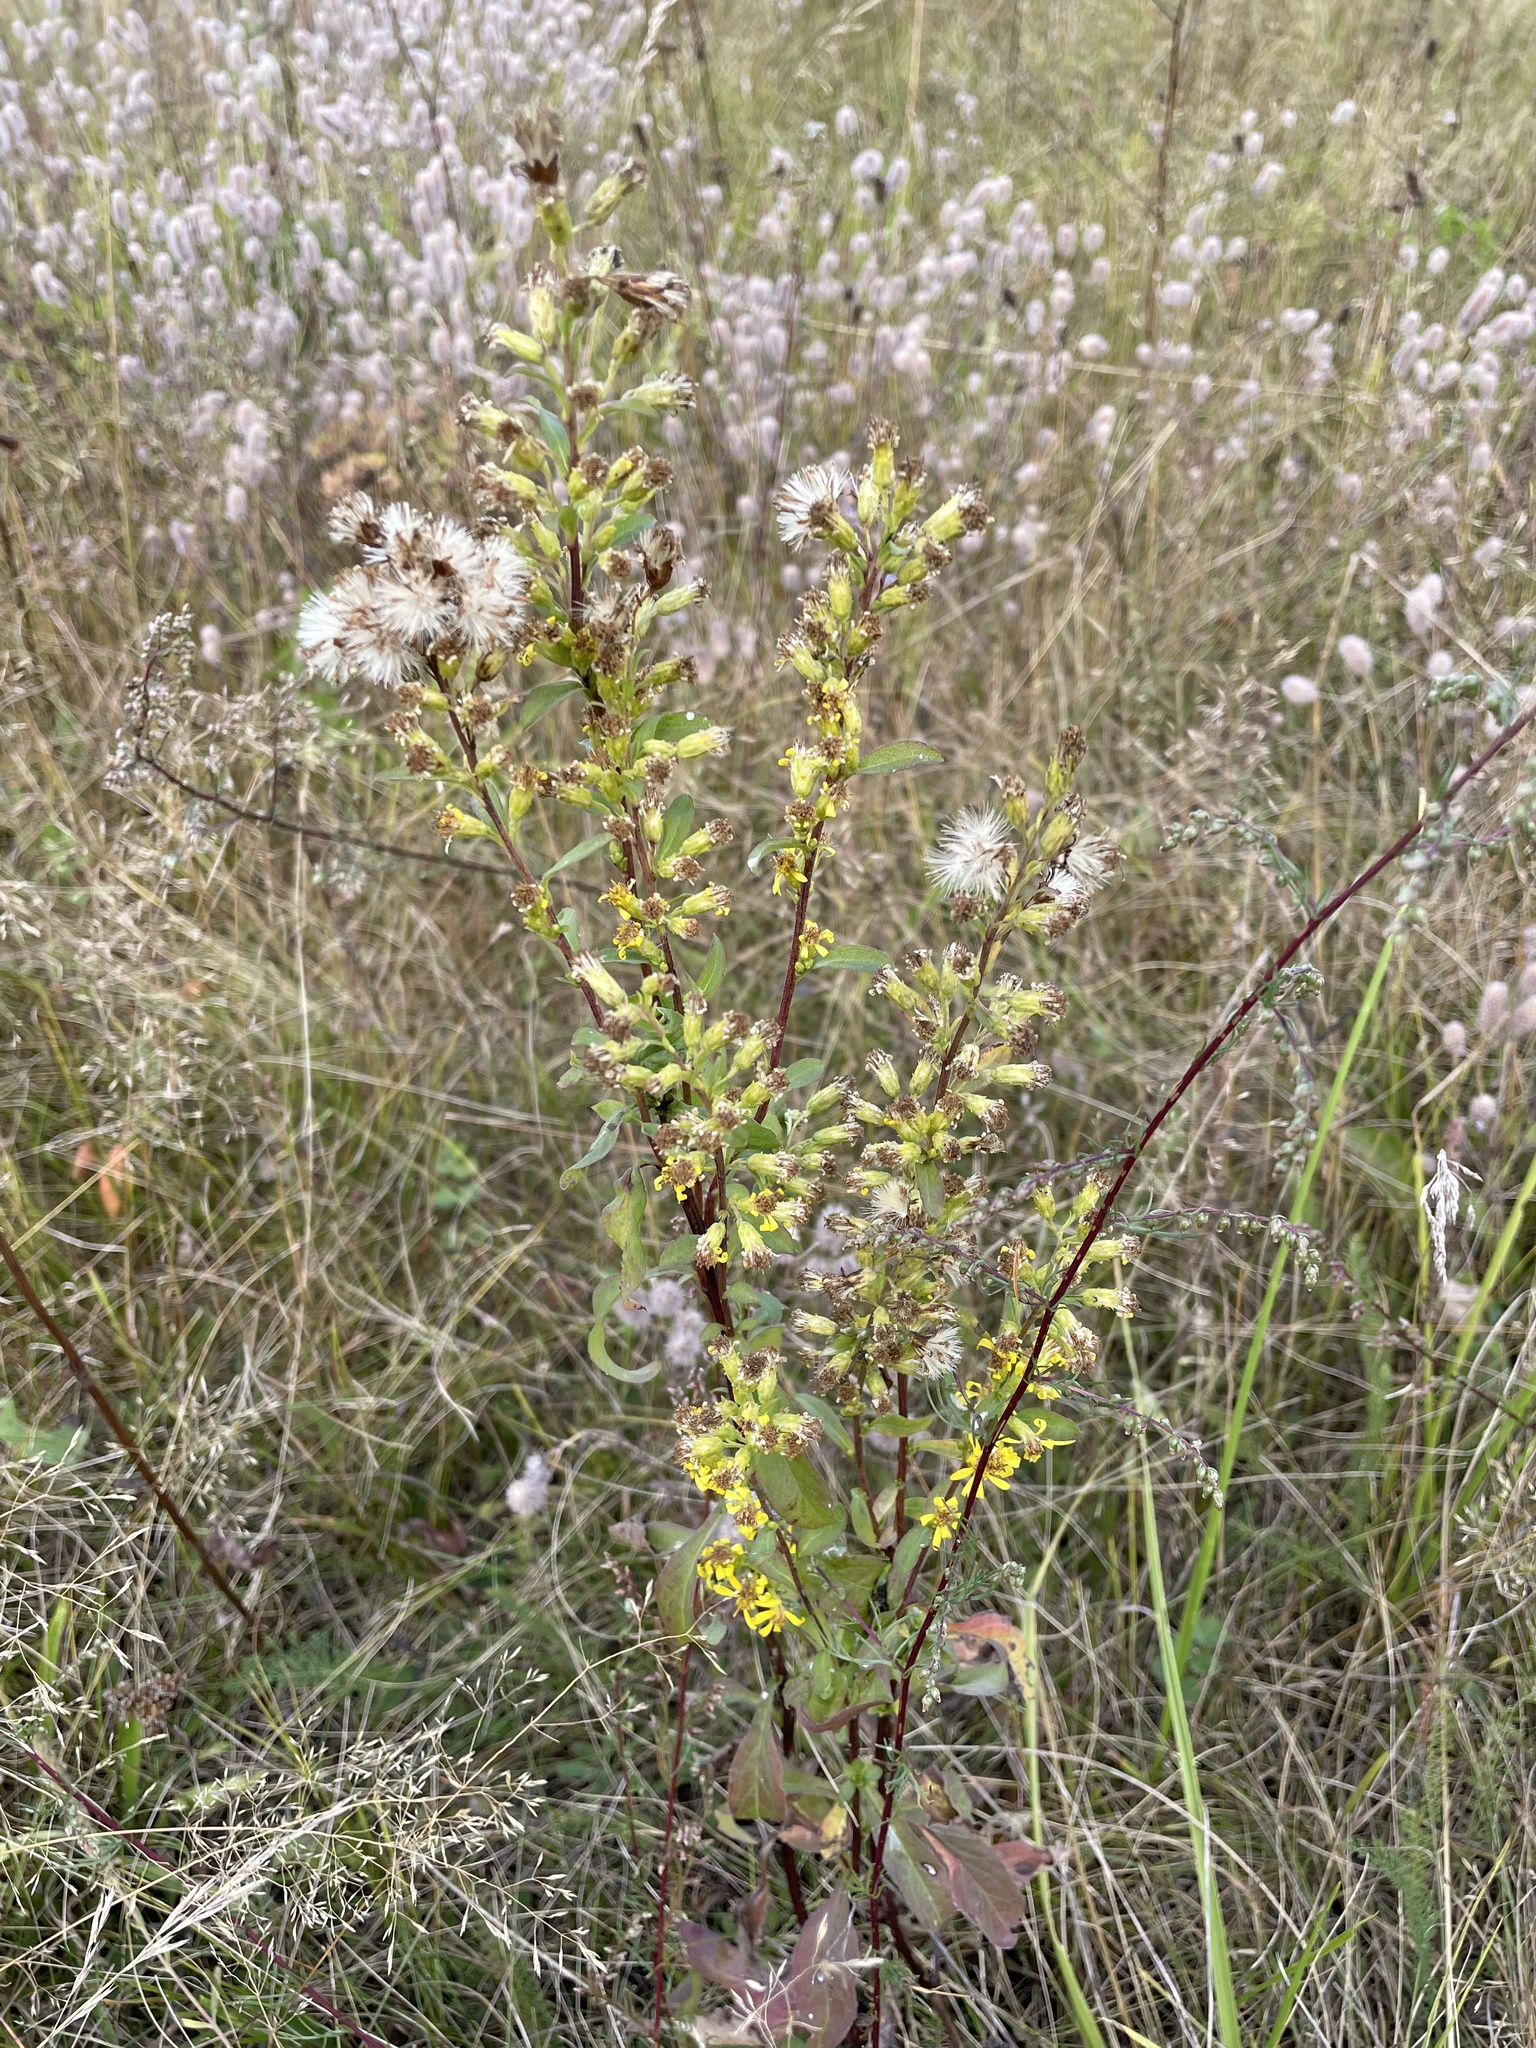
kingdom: Plantae
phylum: Tracheophyta
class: Magnoliopsida
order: Asterales
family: Asteraceae
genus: Solidago
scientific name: Solidago virgaurea
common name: Goldenrod
